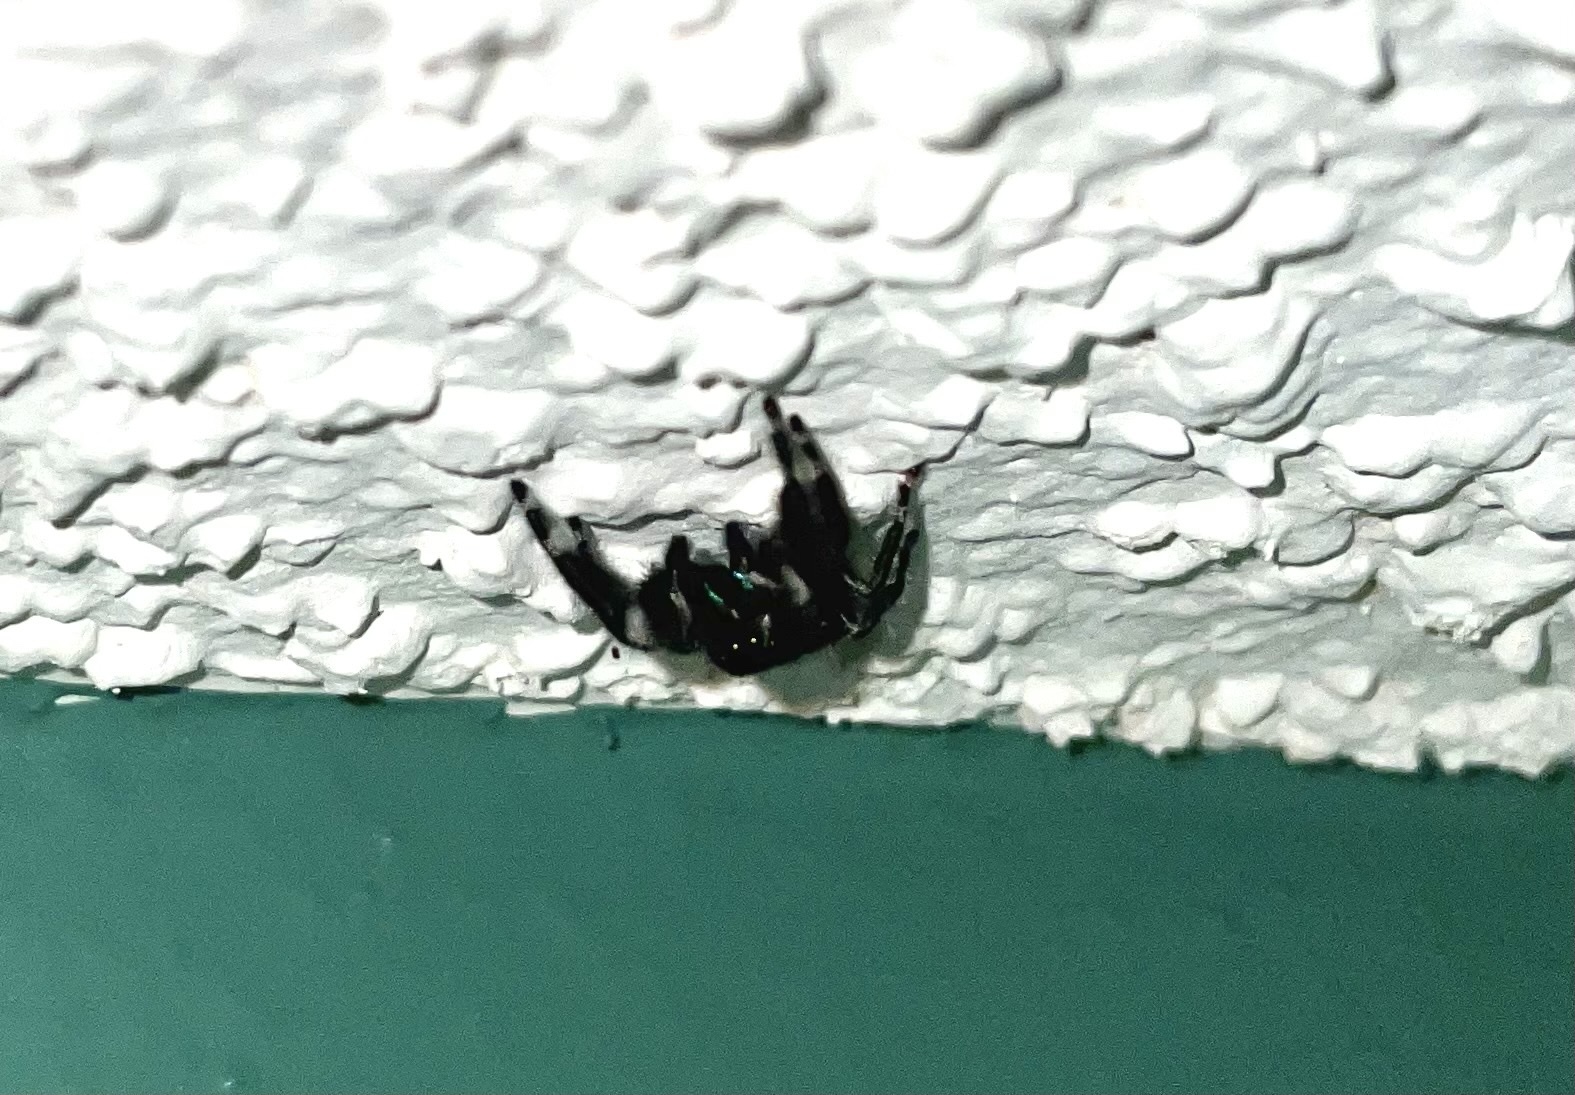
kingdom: Animalia
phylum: Arthropoda
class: Arachnida
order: Araneae
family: Salticidae
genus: Phidippus
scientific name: Phidippus audax
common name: Bold jumper
